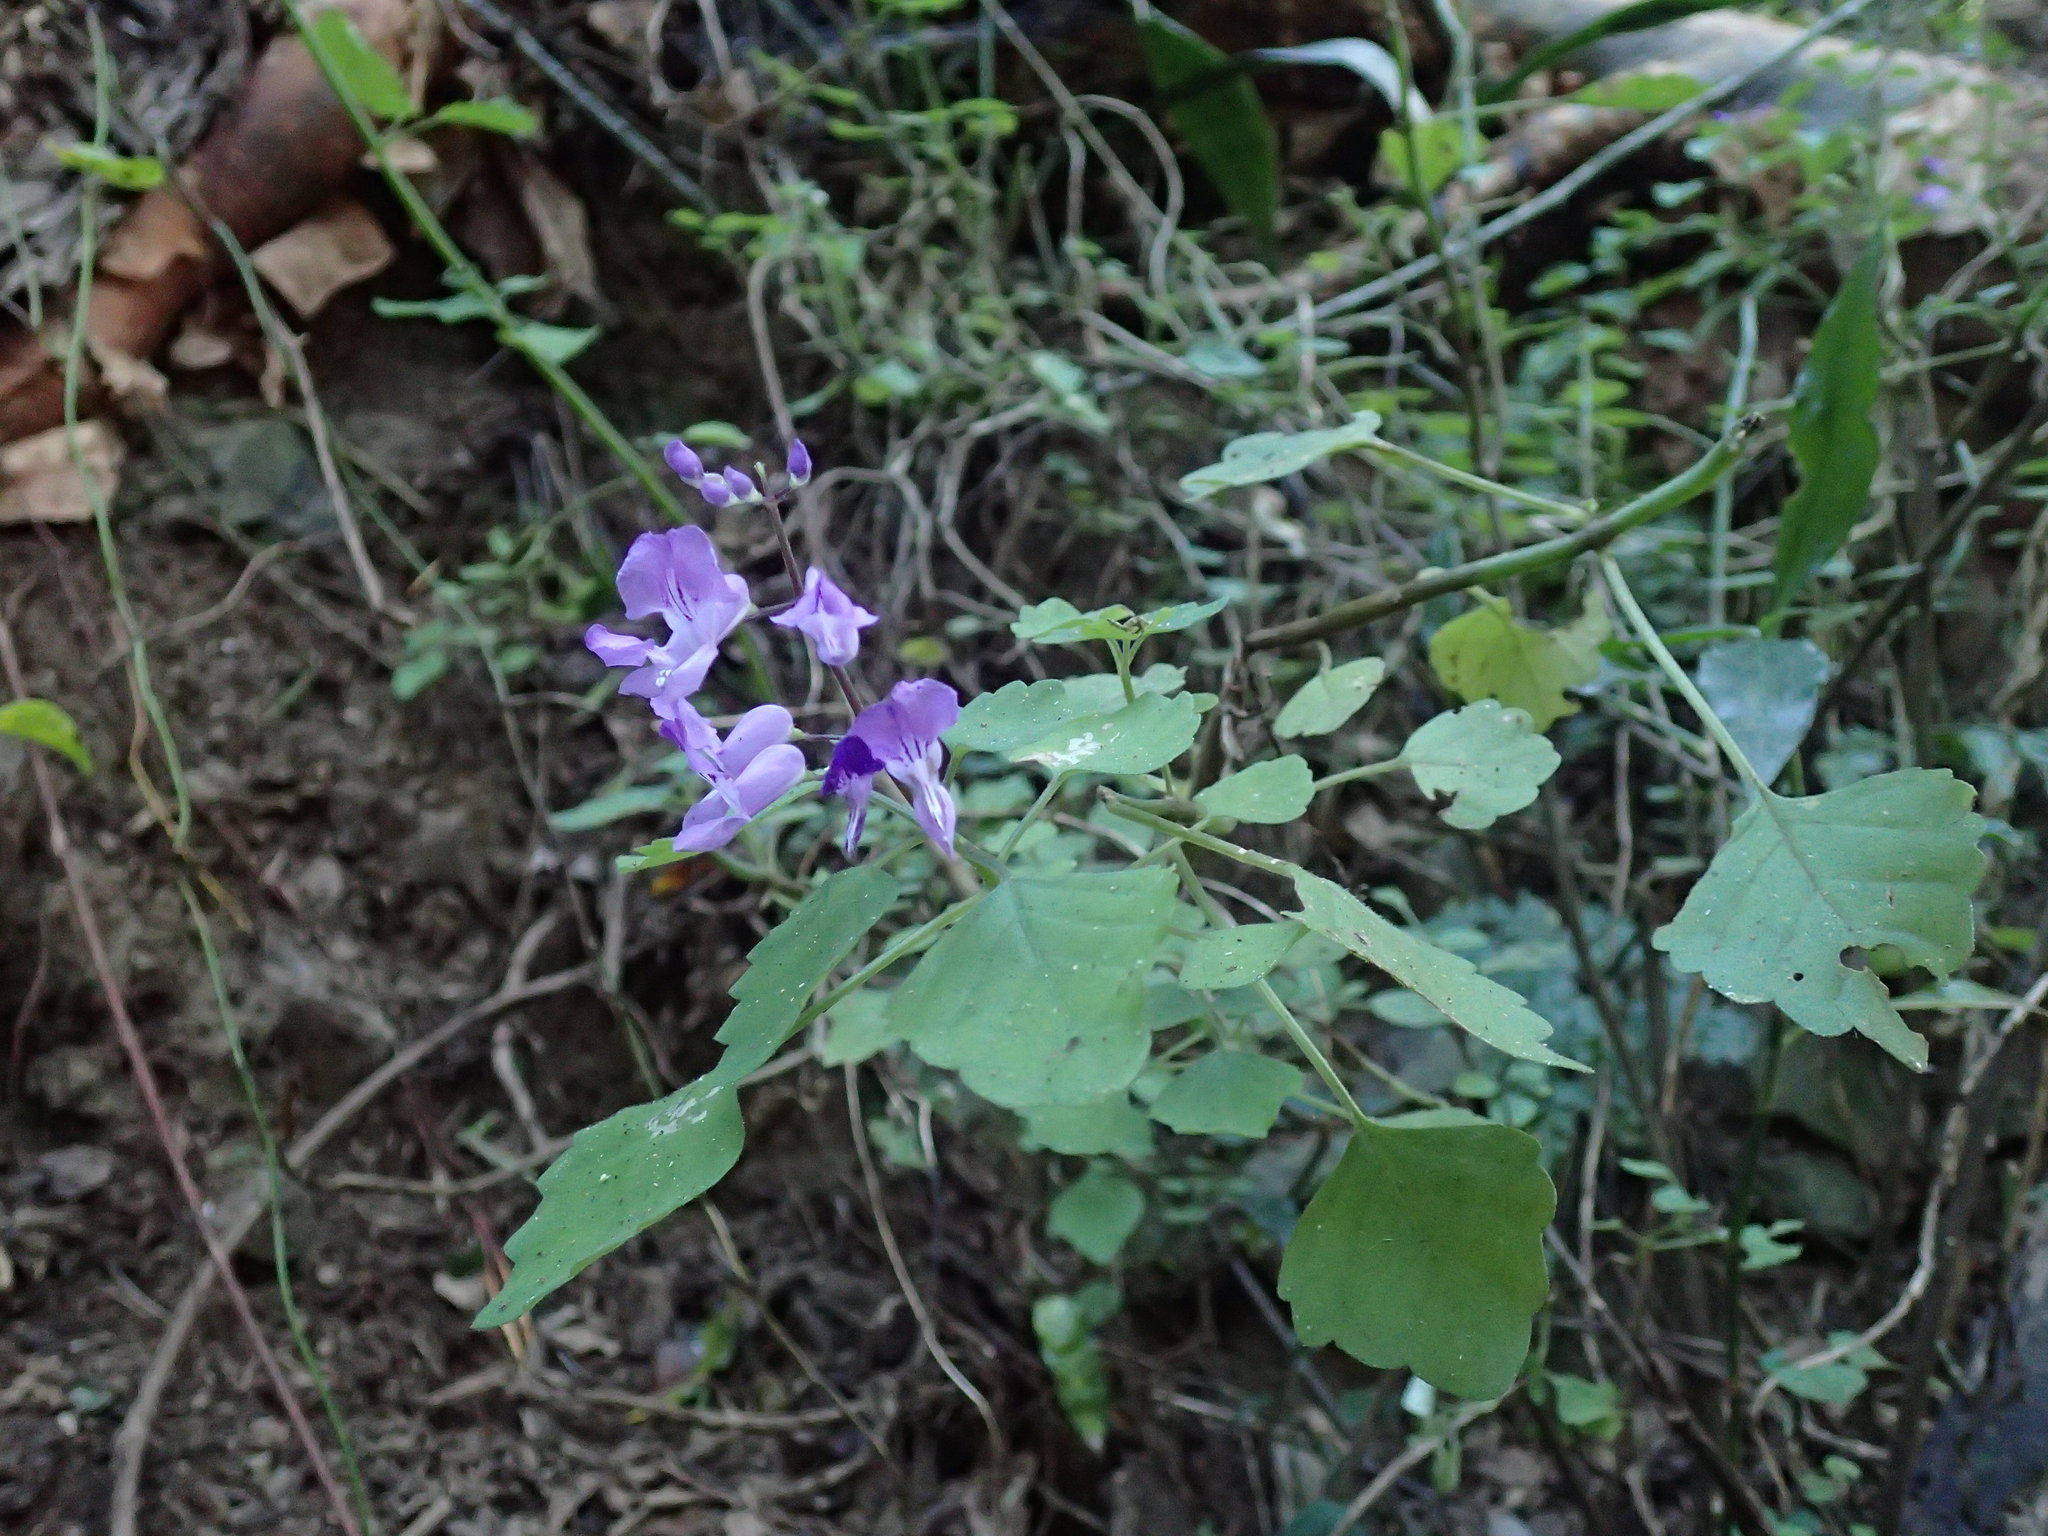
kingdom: Plantae
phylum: Tracheophyta
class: Magnoliopsida
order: Lamiales
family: Lamiaceae
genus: Plectranthus
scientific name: Plectranthus saccatus
